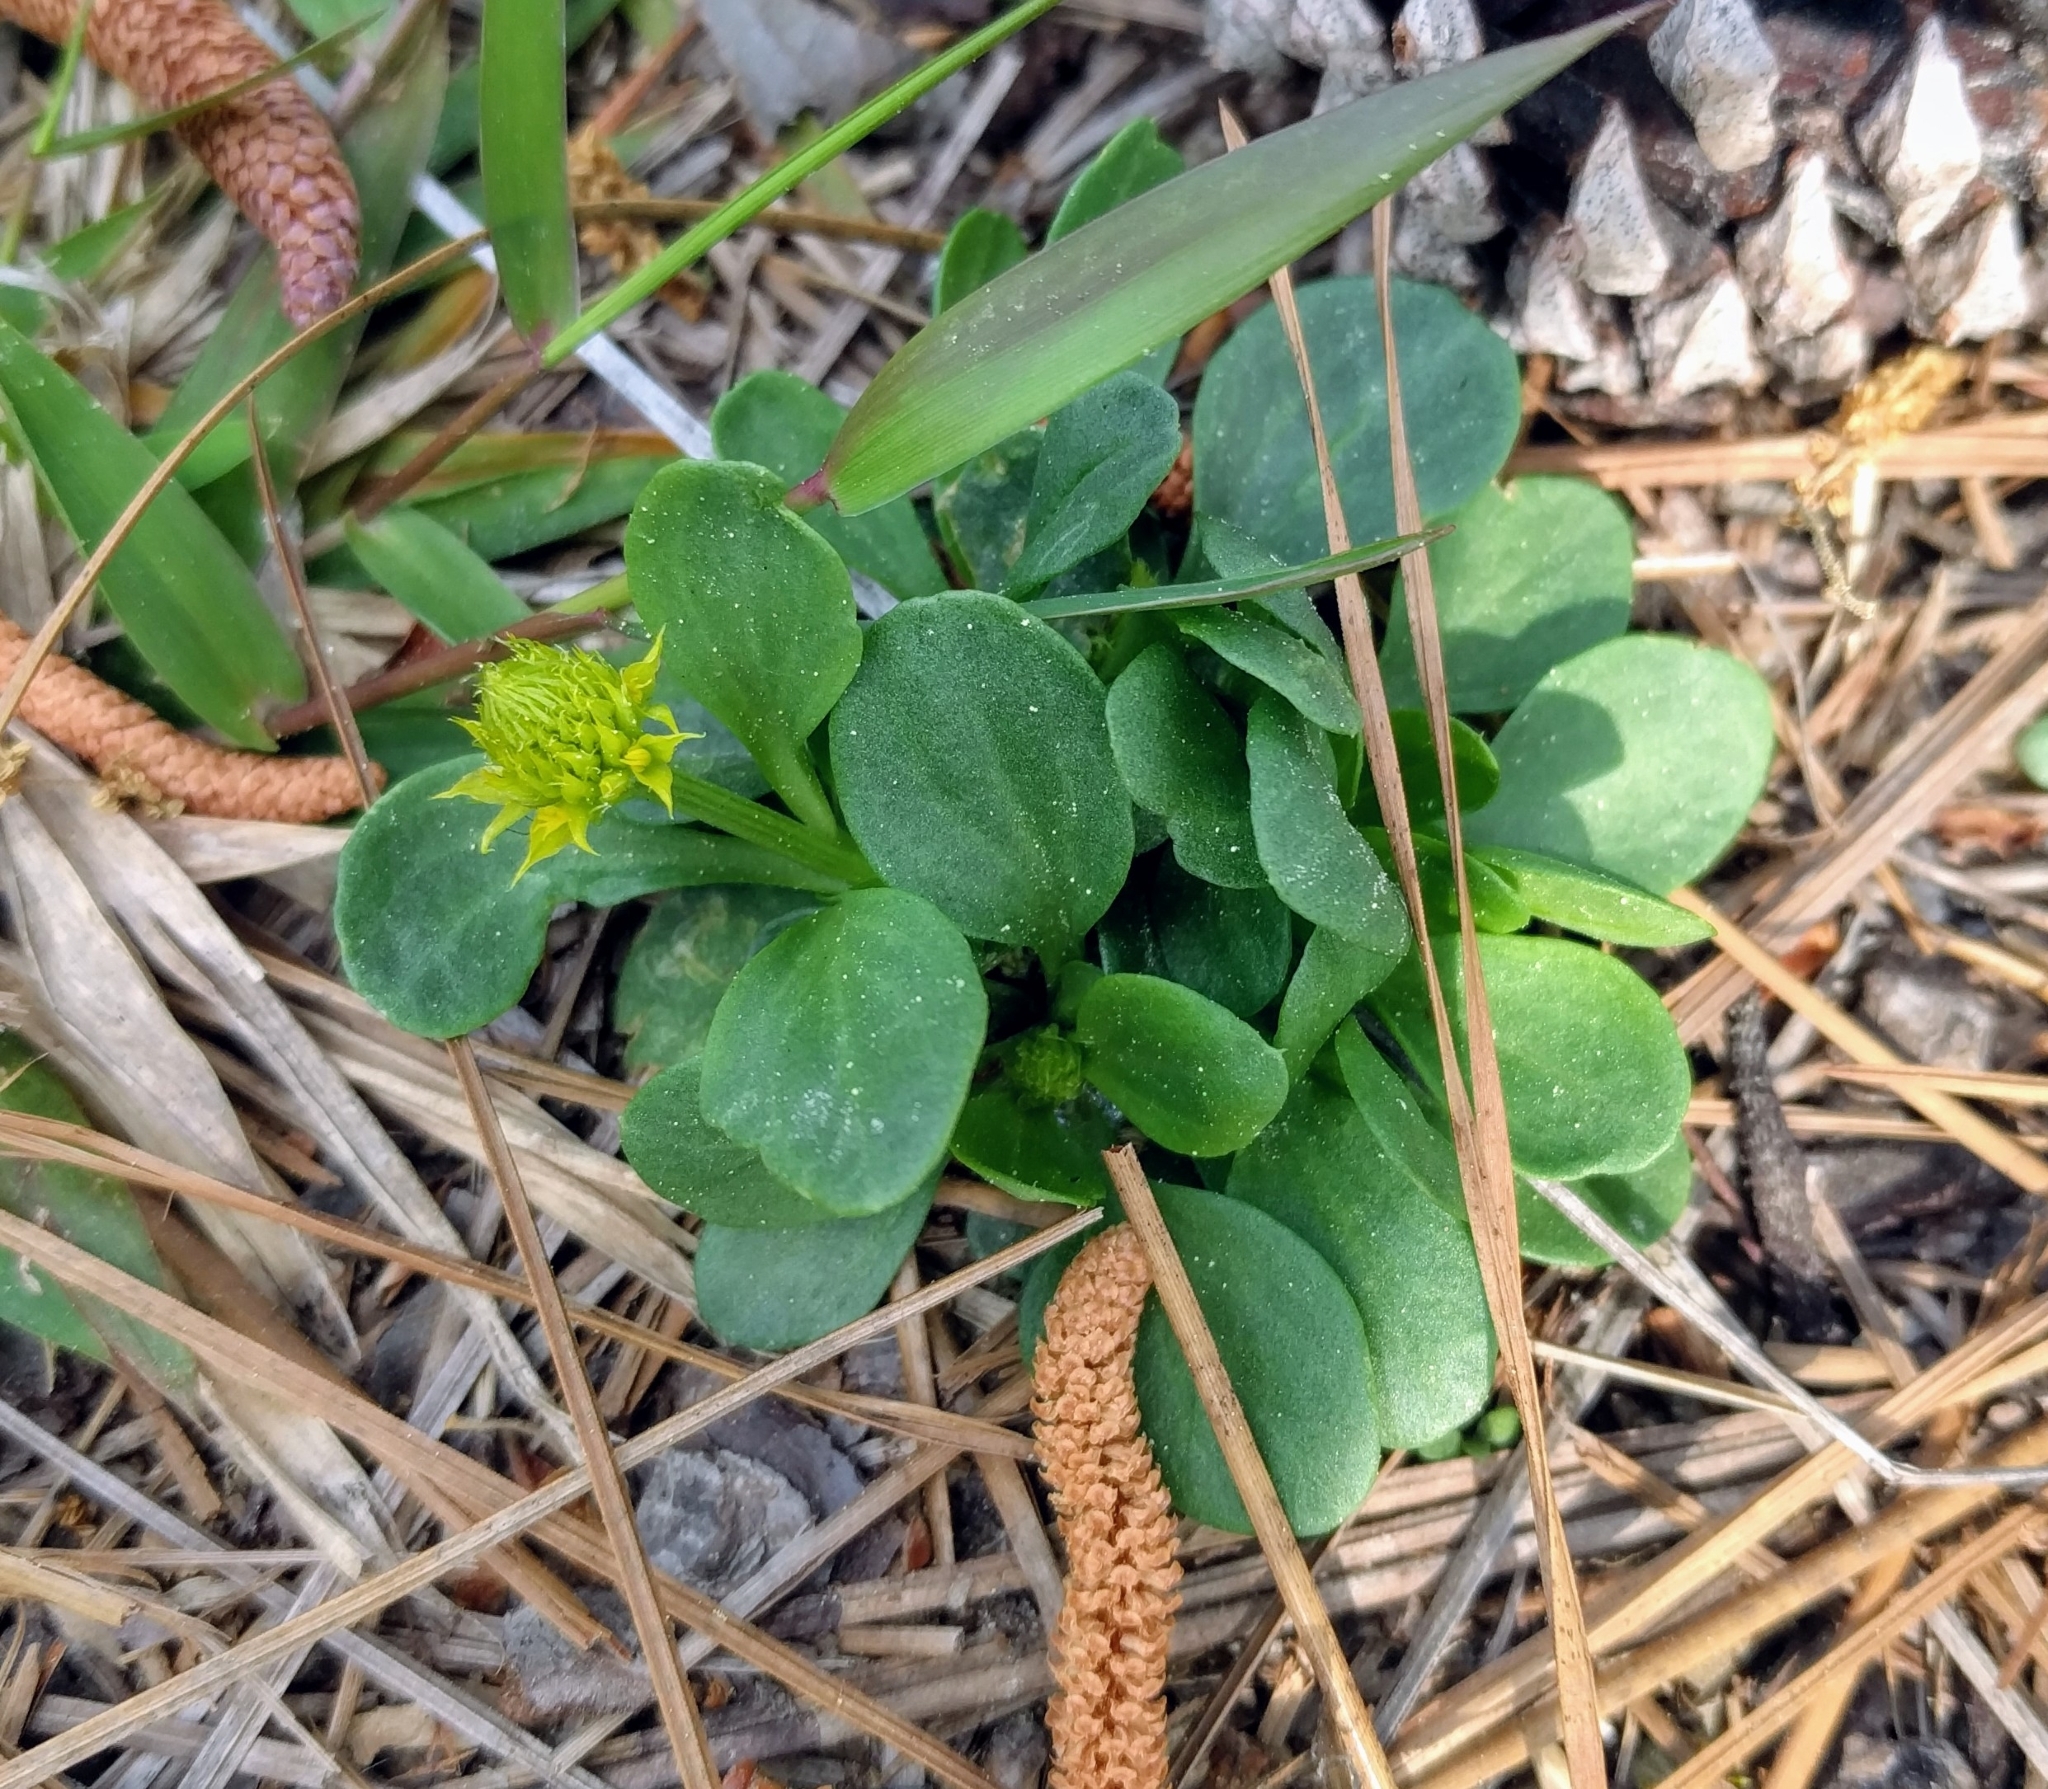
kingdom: Plantae
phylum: Tracheophyta
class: Magnoliopsida
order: Fabales
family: Polygalaceae
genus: Polygala
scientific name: Polygala nana
